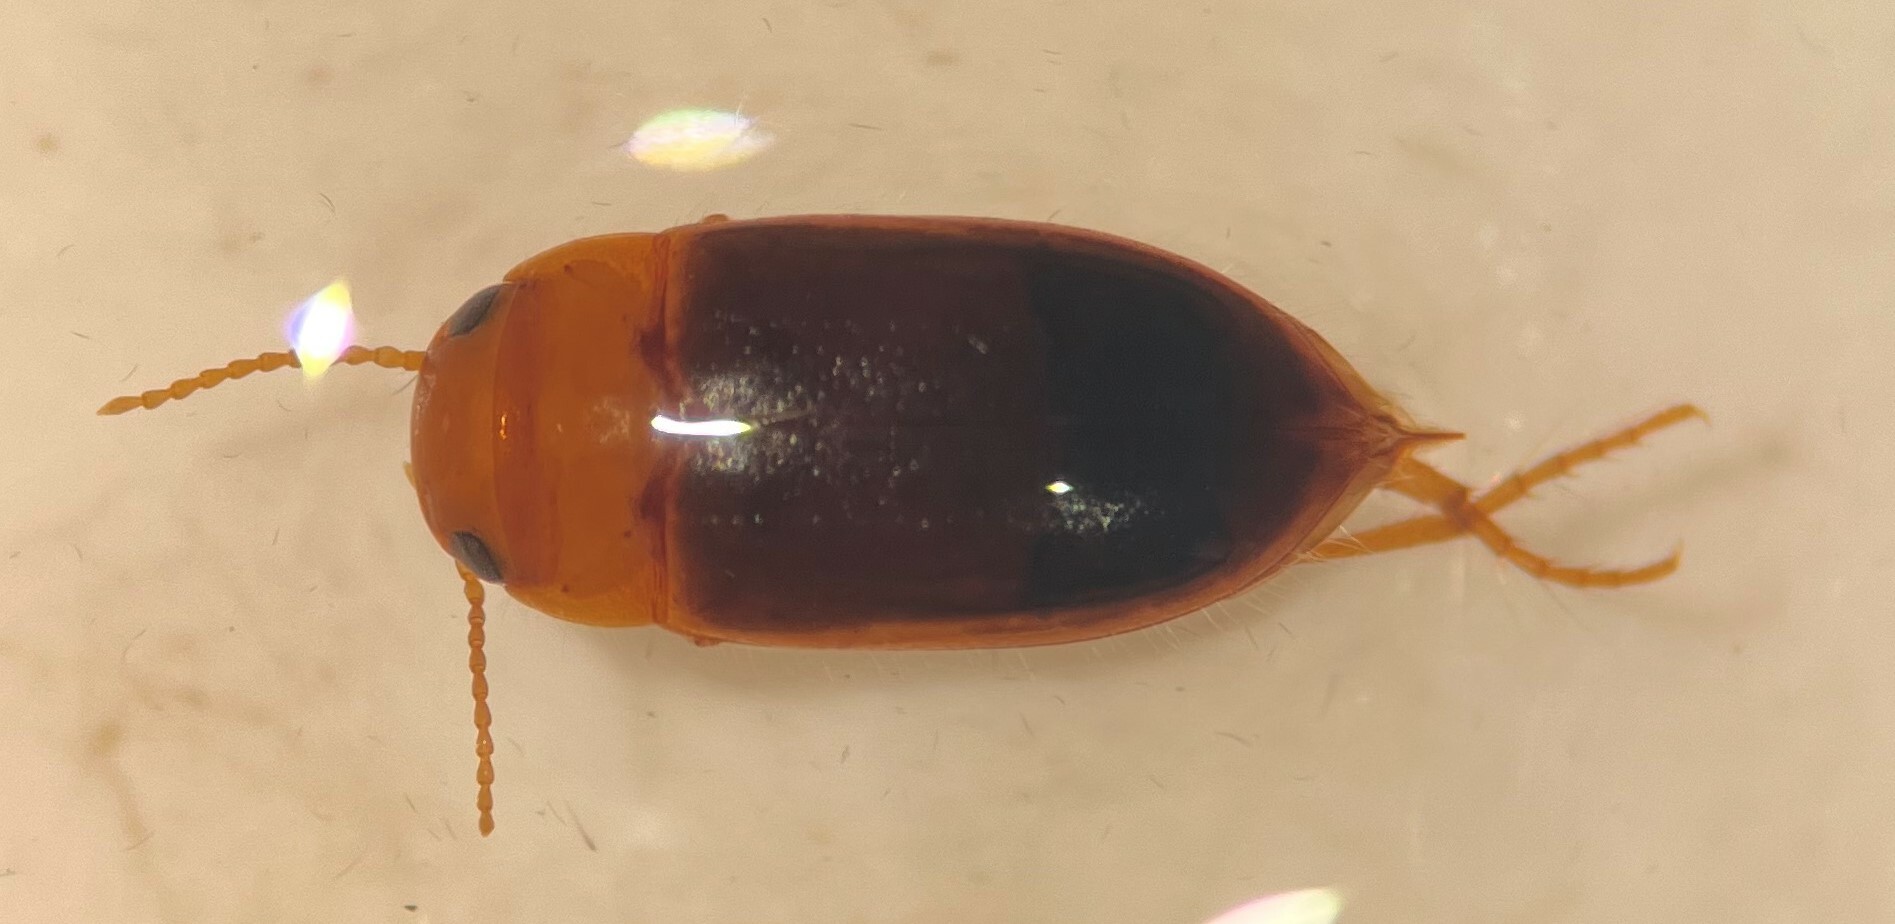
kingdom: Animalia
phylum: Arthropoda
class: Insecta
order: Coleoptera
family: Dytiscidae
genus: Celina
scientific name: Celina angustata
